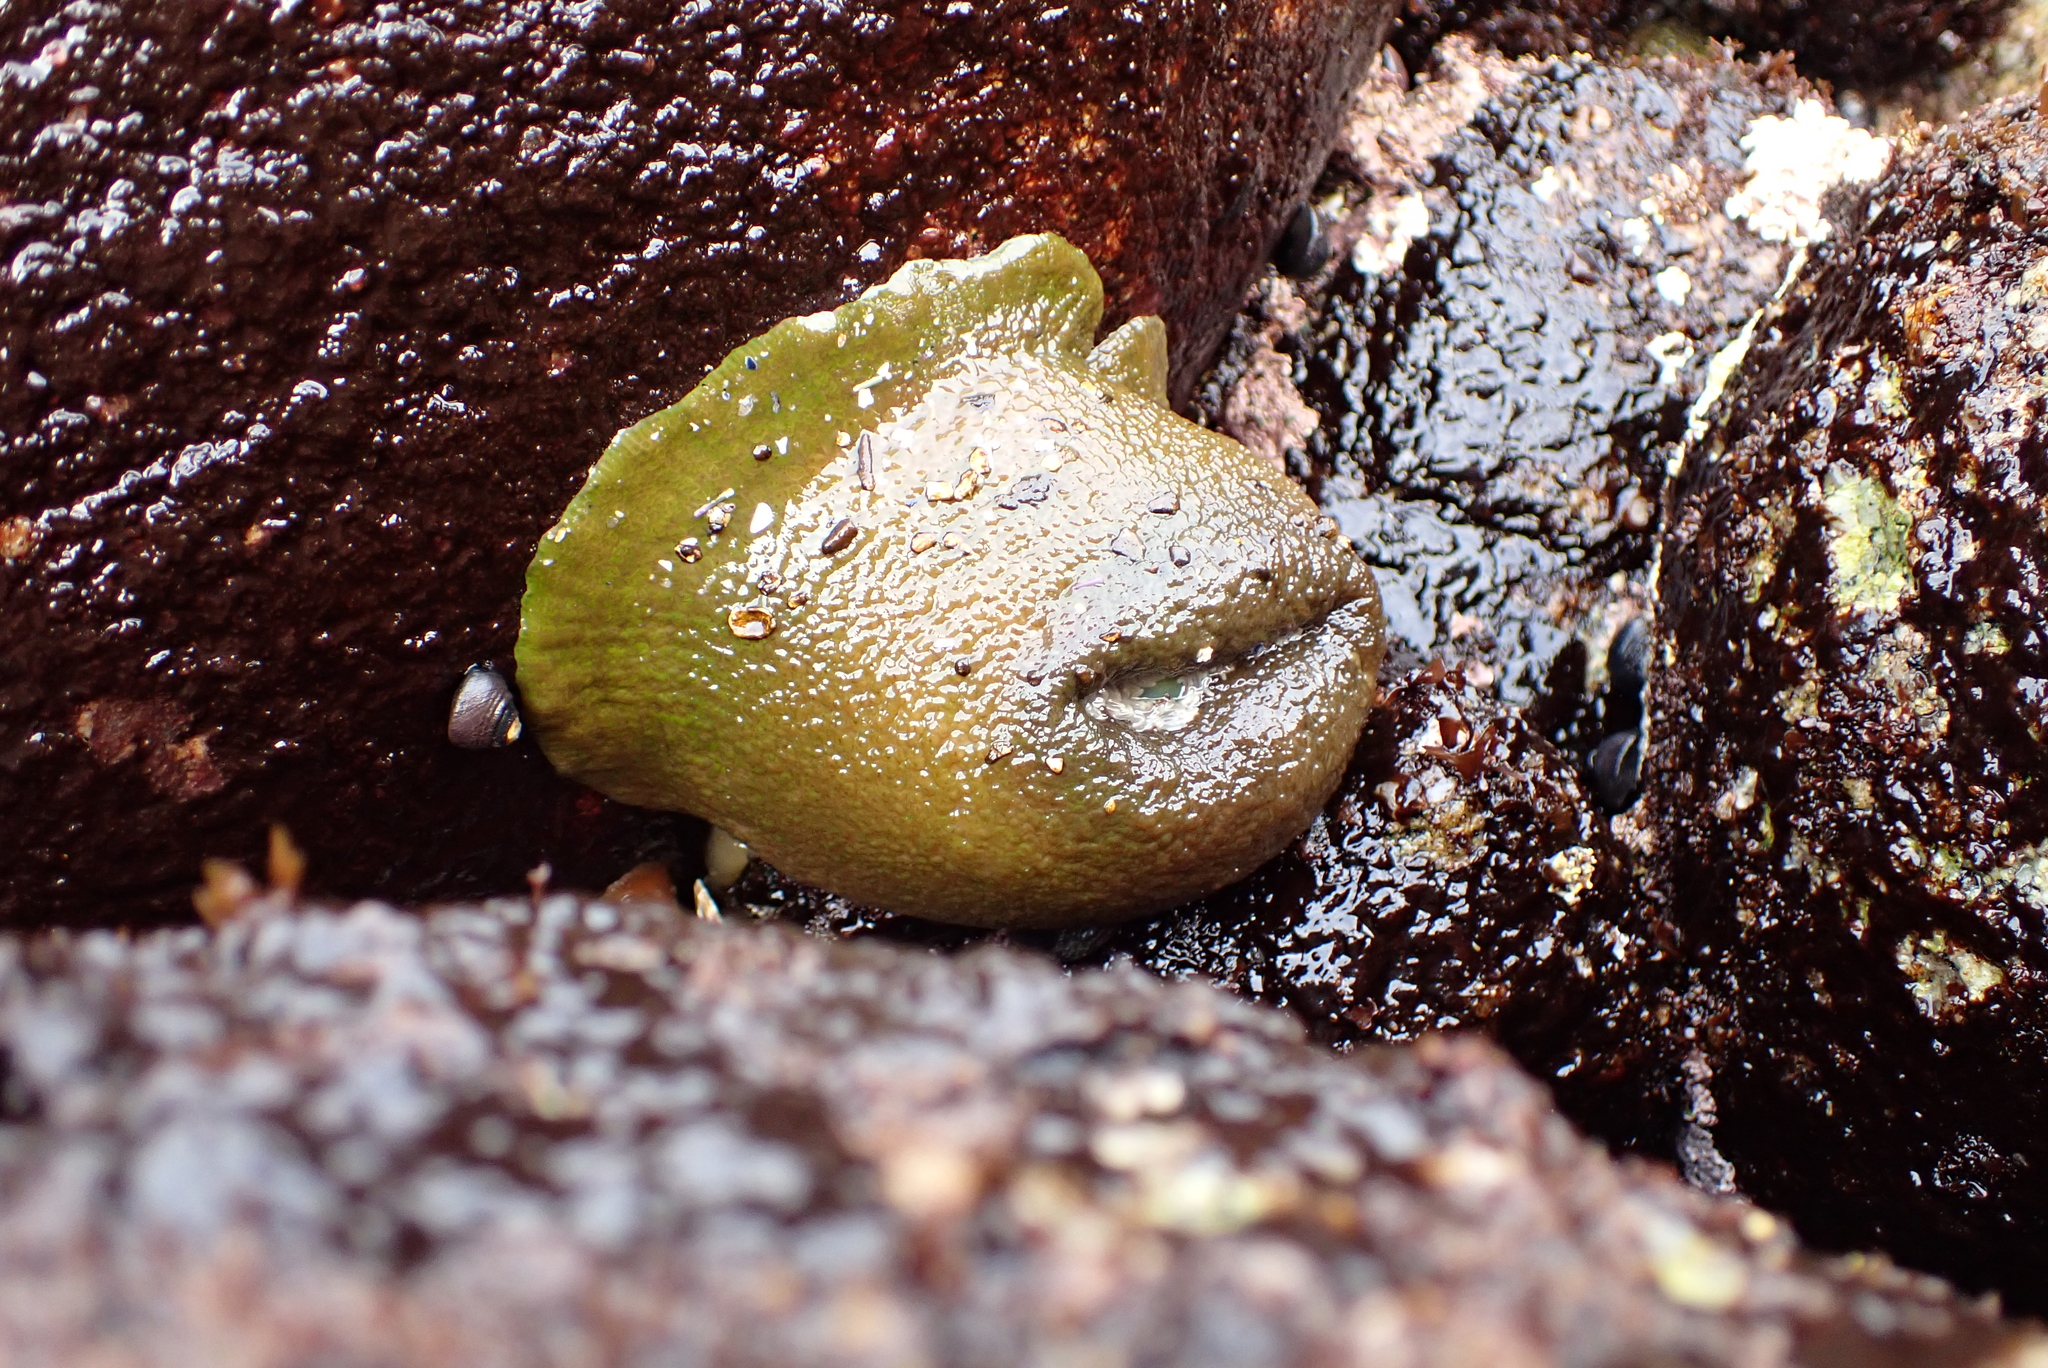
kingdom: Animalia
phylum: Cnidaria
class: Anthozoa
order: Actiniaria
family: Actiniidae
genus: Anthopleura
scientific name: Anthopleura xanthogrammica
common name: Giant green anemone
